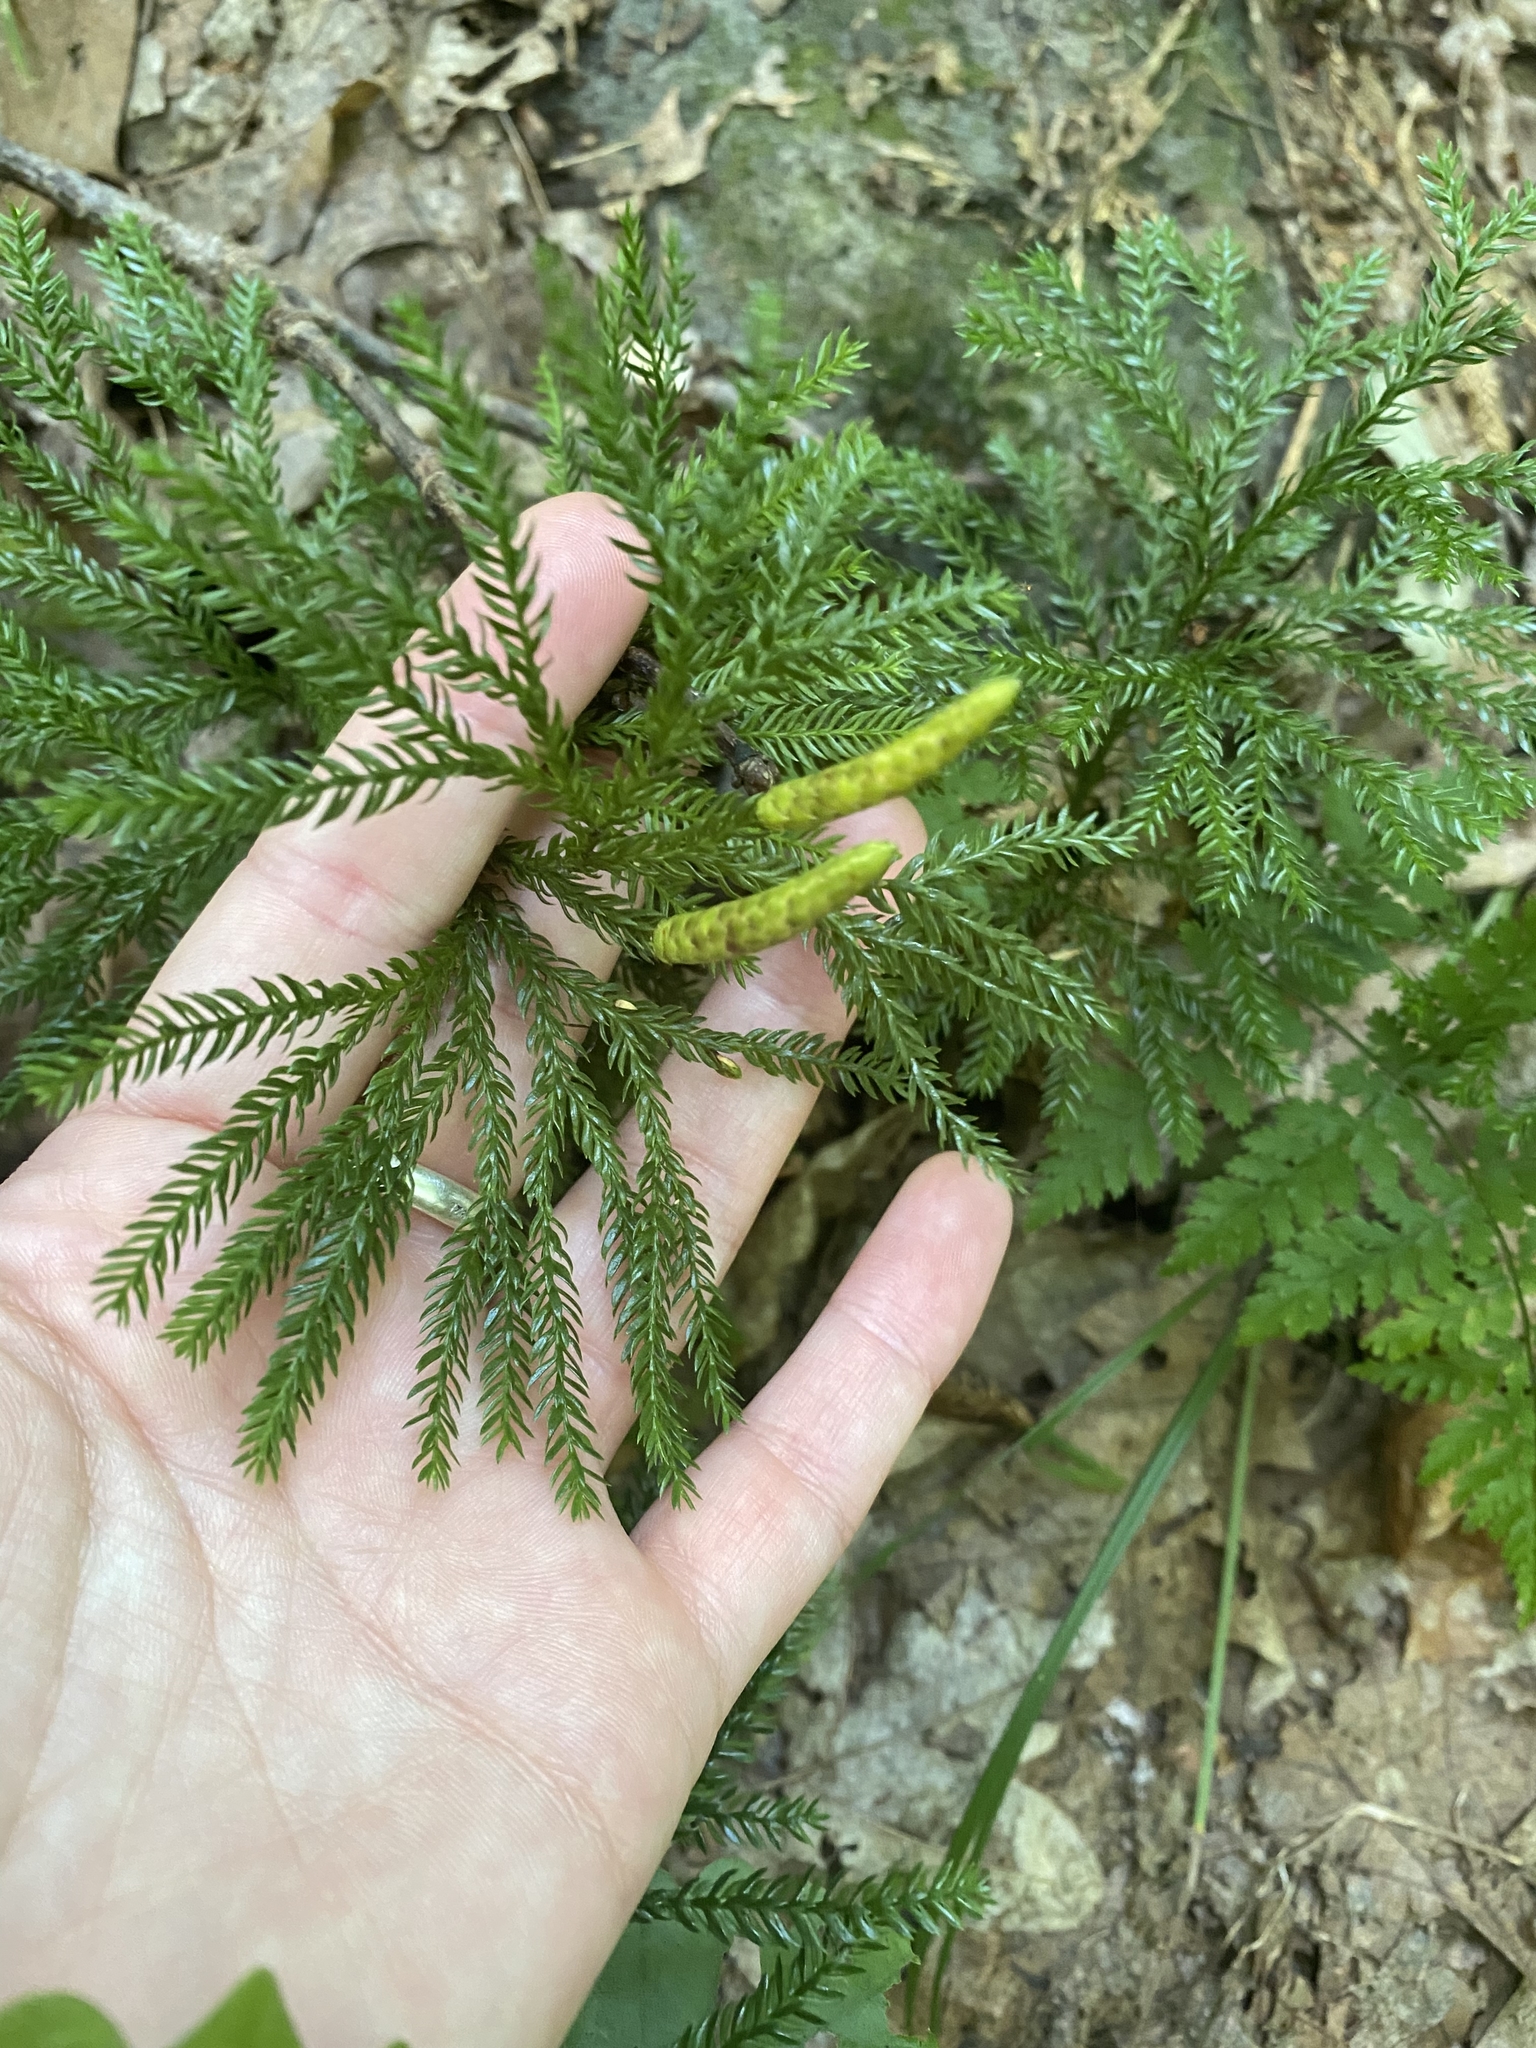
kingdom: Plantae
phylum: Tracheophyta
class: Lycopodiopsida
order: Lycopodiales
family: Lycopodiaceae
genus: Dendrolycopodium
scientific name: Dendrolycopodium obscurum
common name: Common ground-pine
